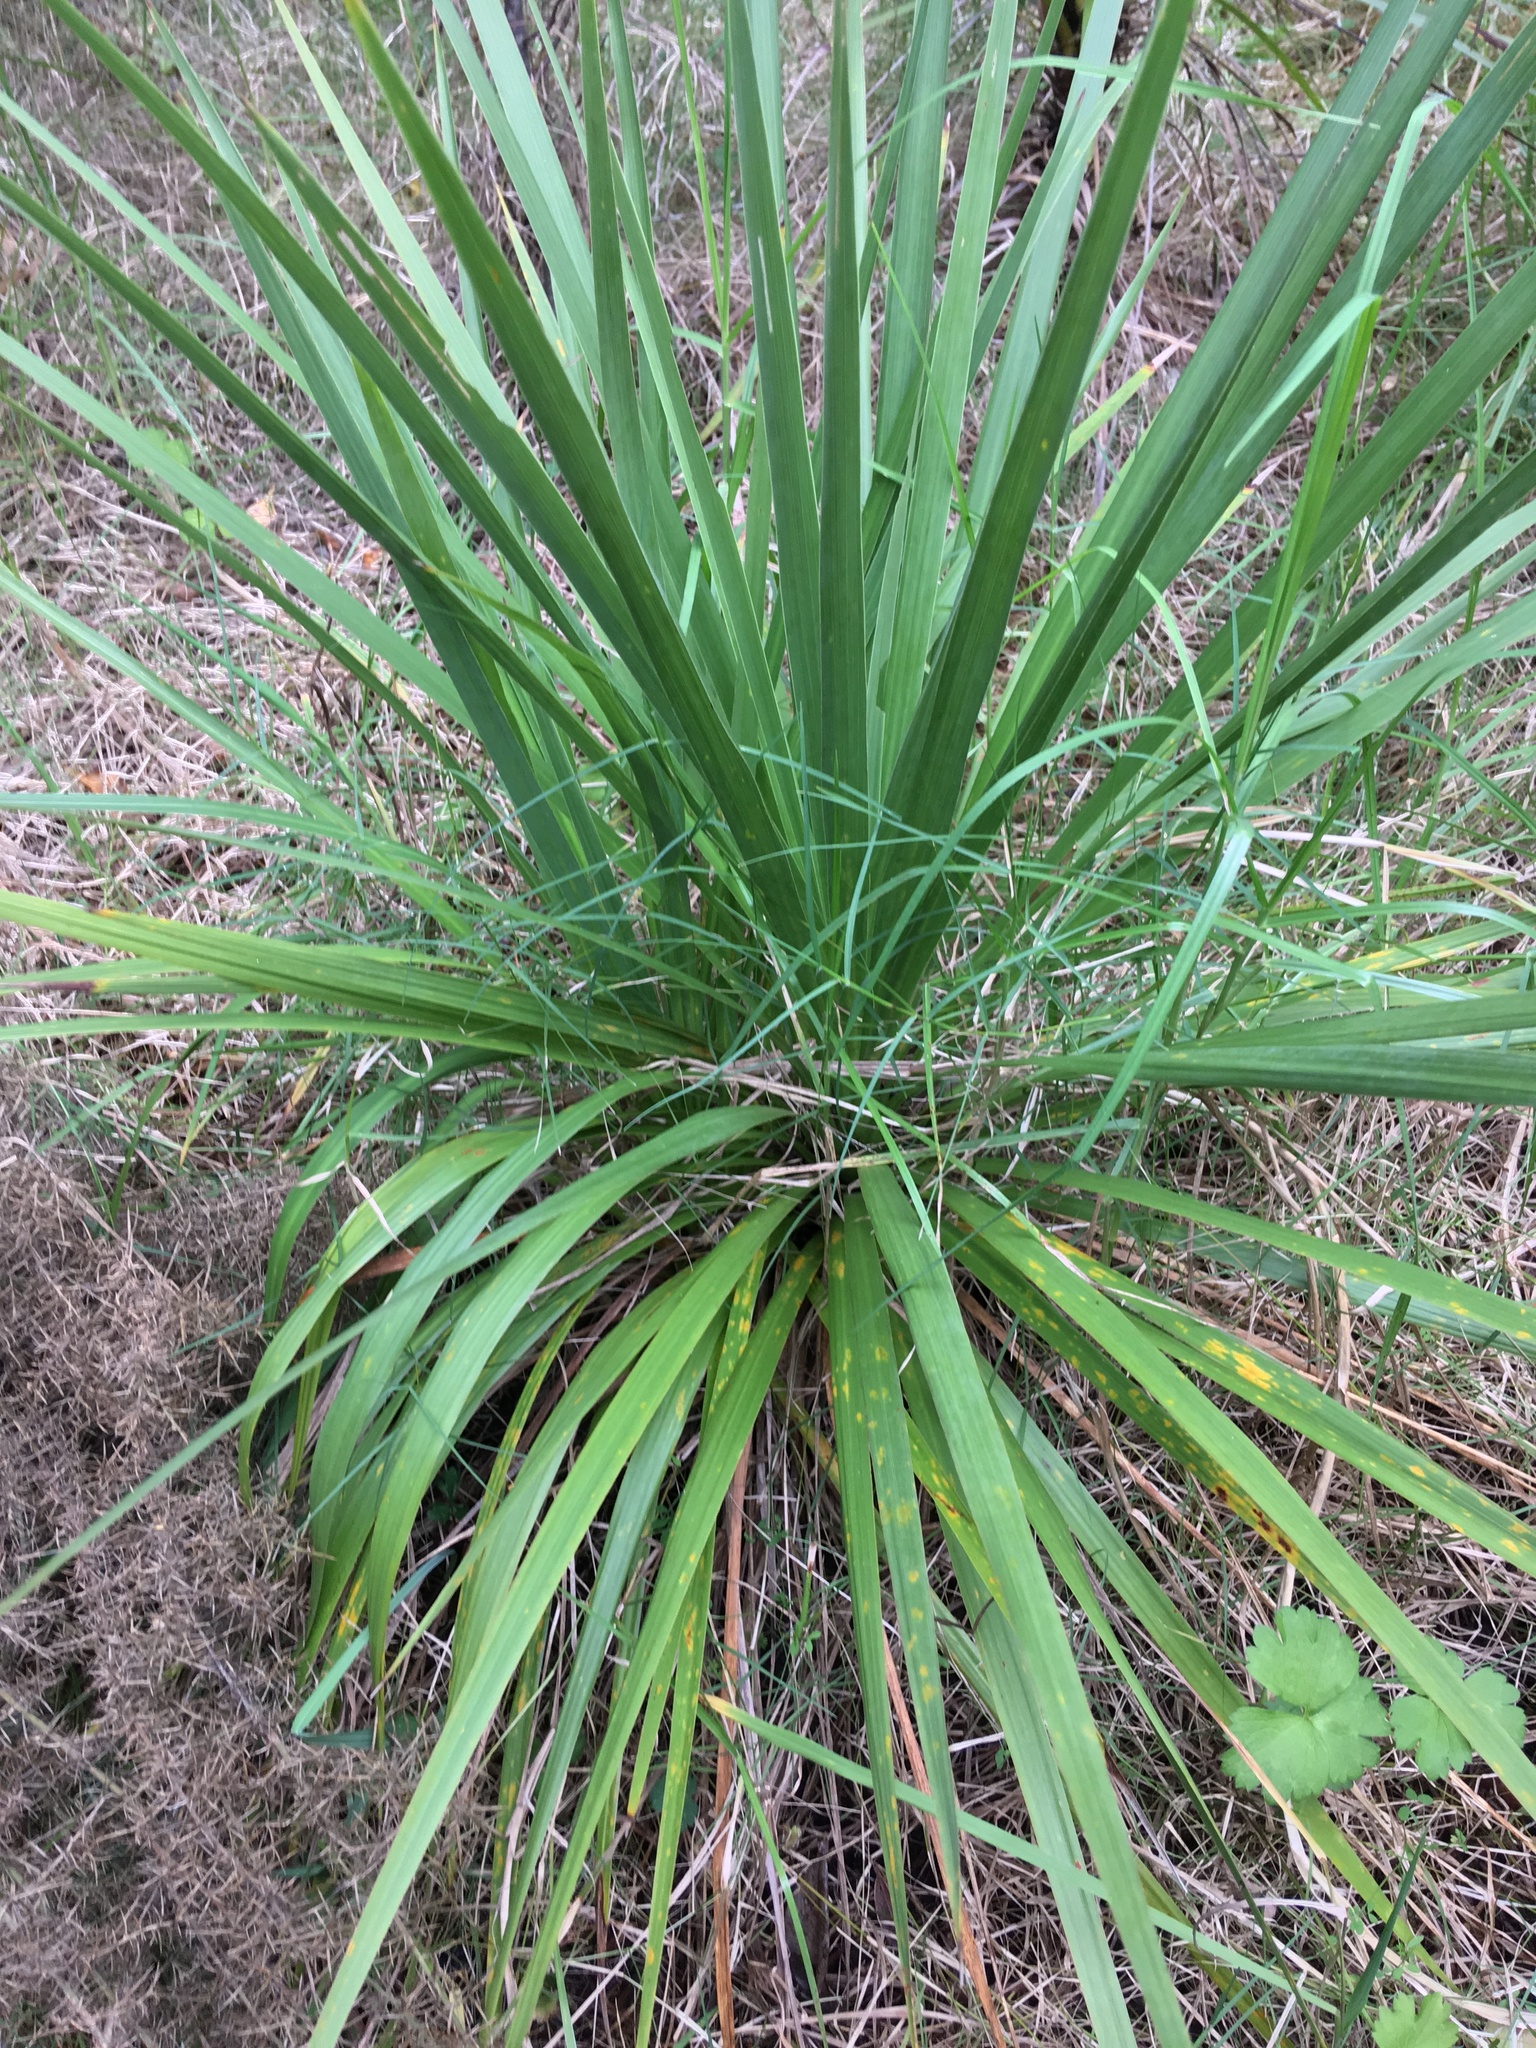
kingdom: Plantae
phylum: Tracheophyta
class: Magnoliopsida
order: Fabales
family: Fabaceae
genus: Ulex
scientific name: Ulex europaeus
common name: Common gorse
